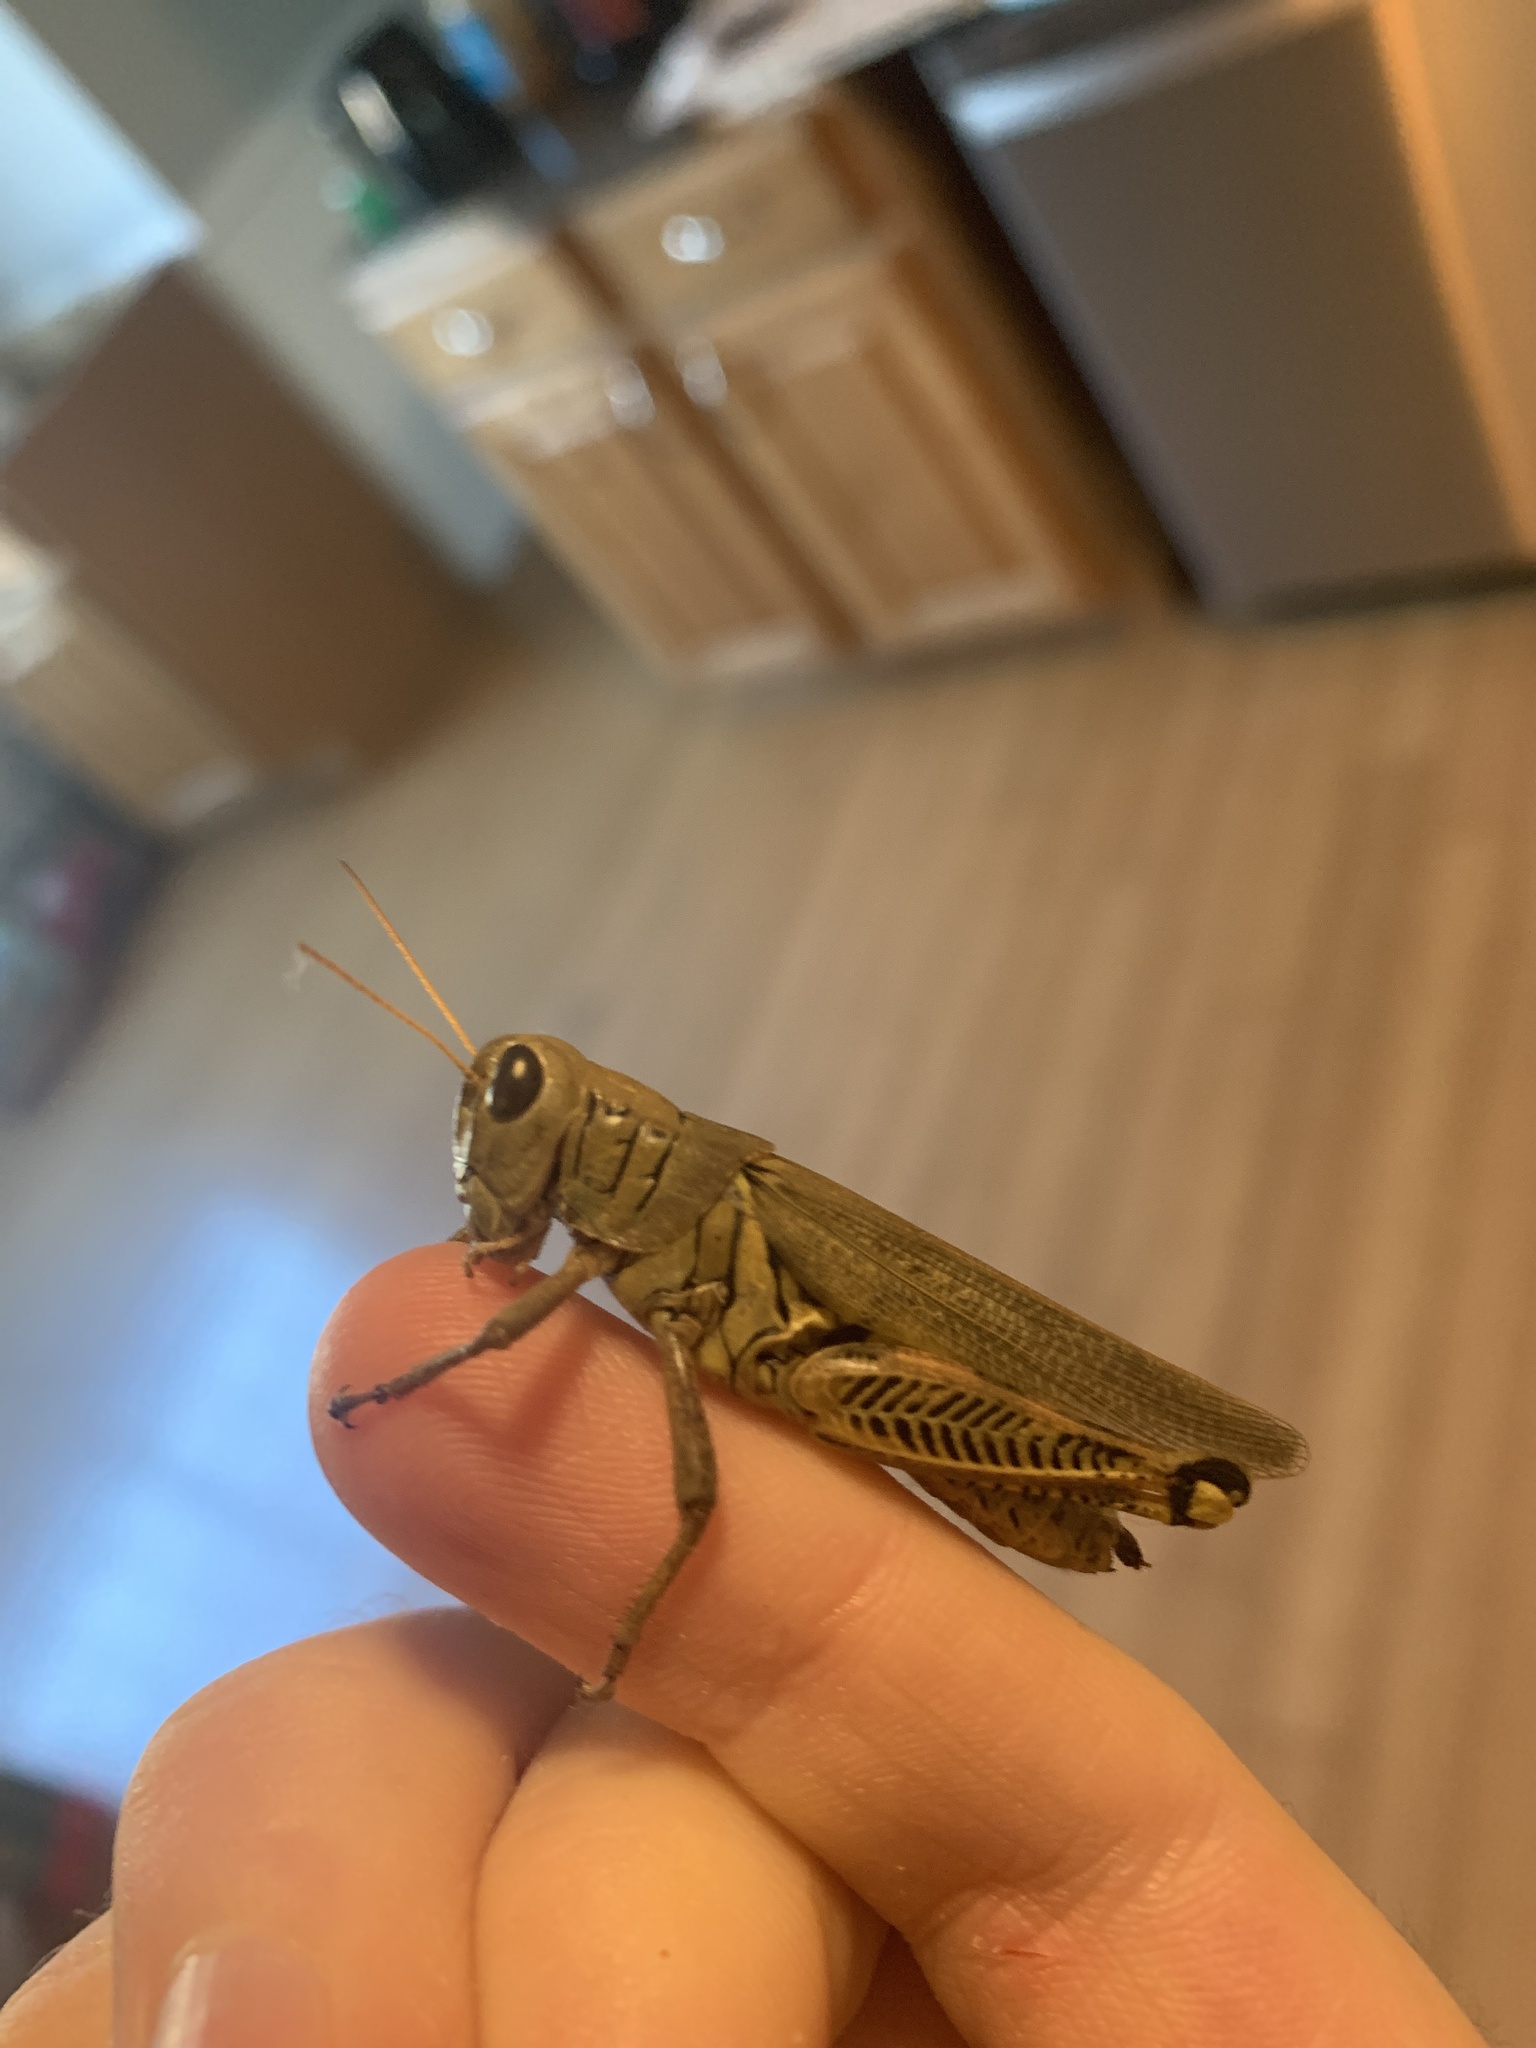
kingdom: Animalia
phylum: Arthropoda
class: Insecta
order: Orthoptera
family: Acrididae
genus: Melanoplus
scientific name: Melanoplus differentialis
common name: Differential grasshopper
